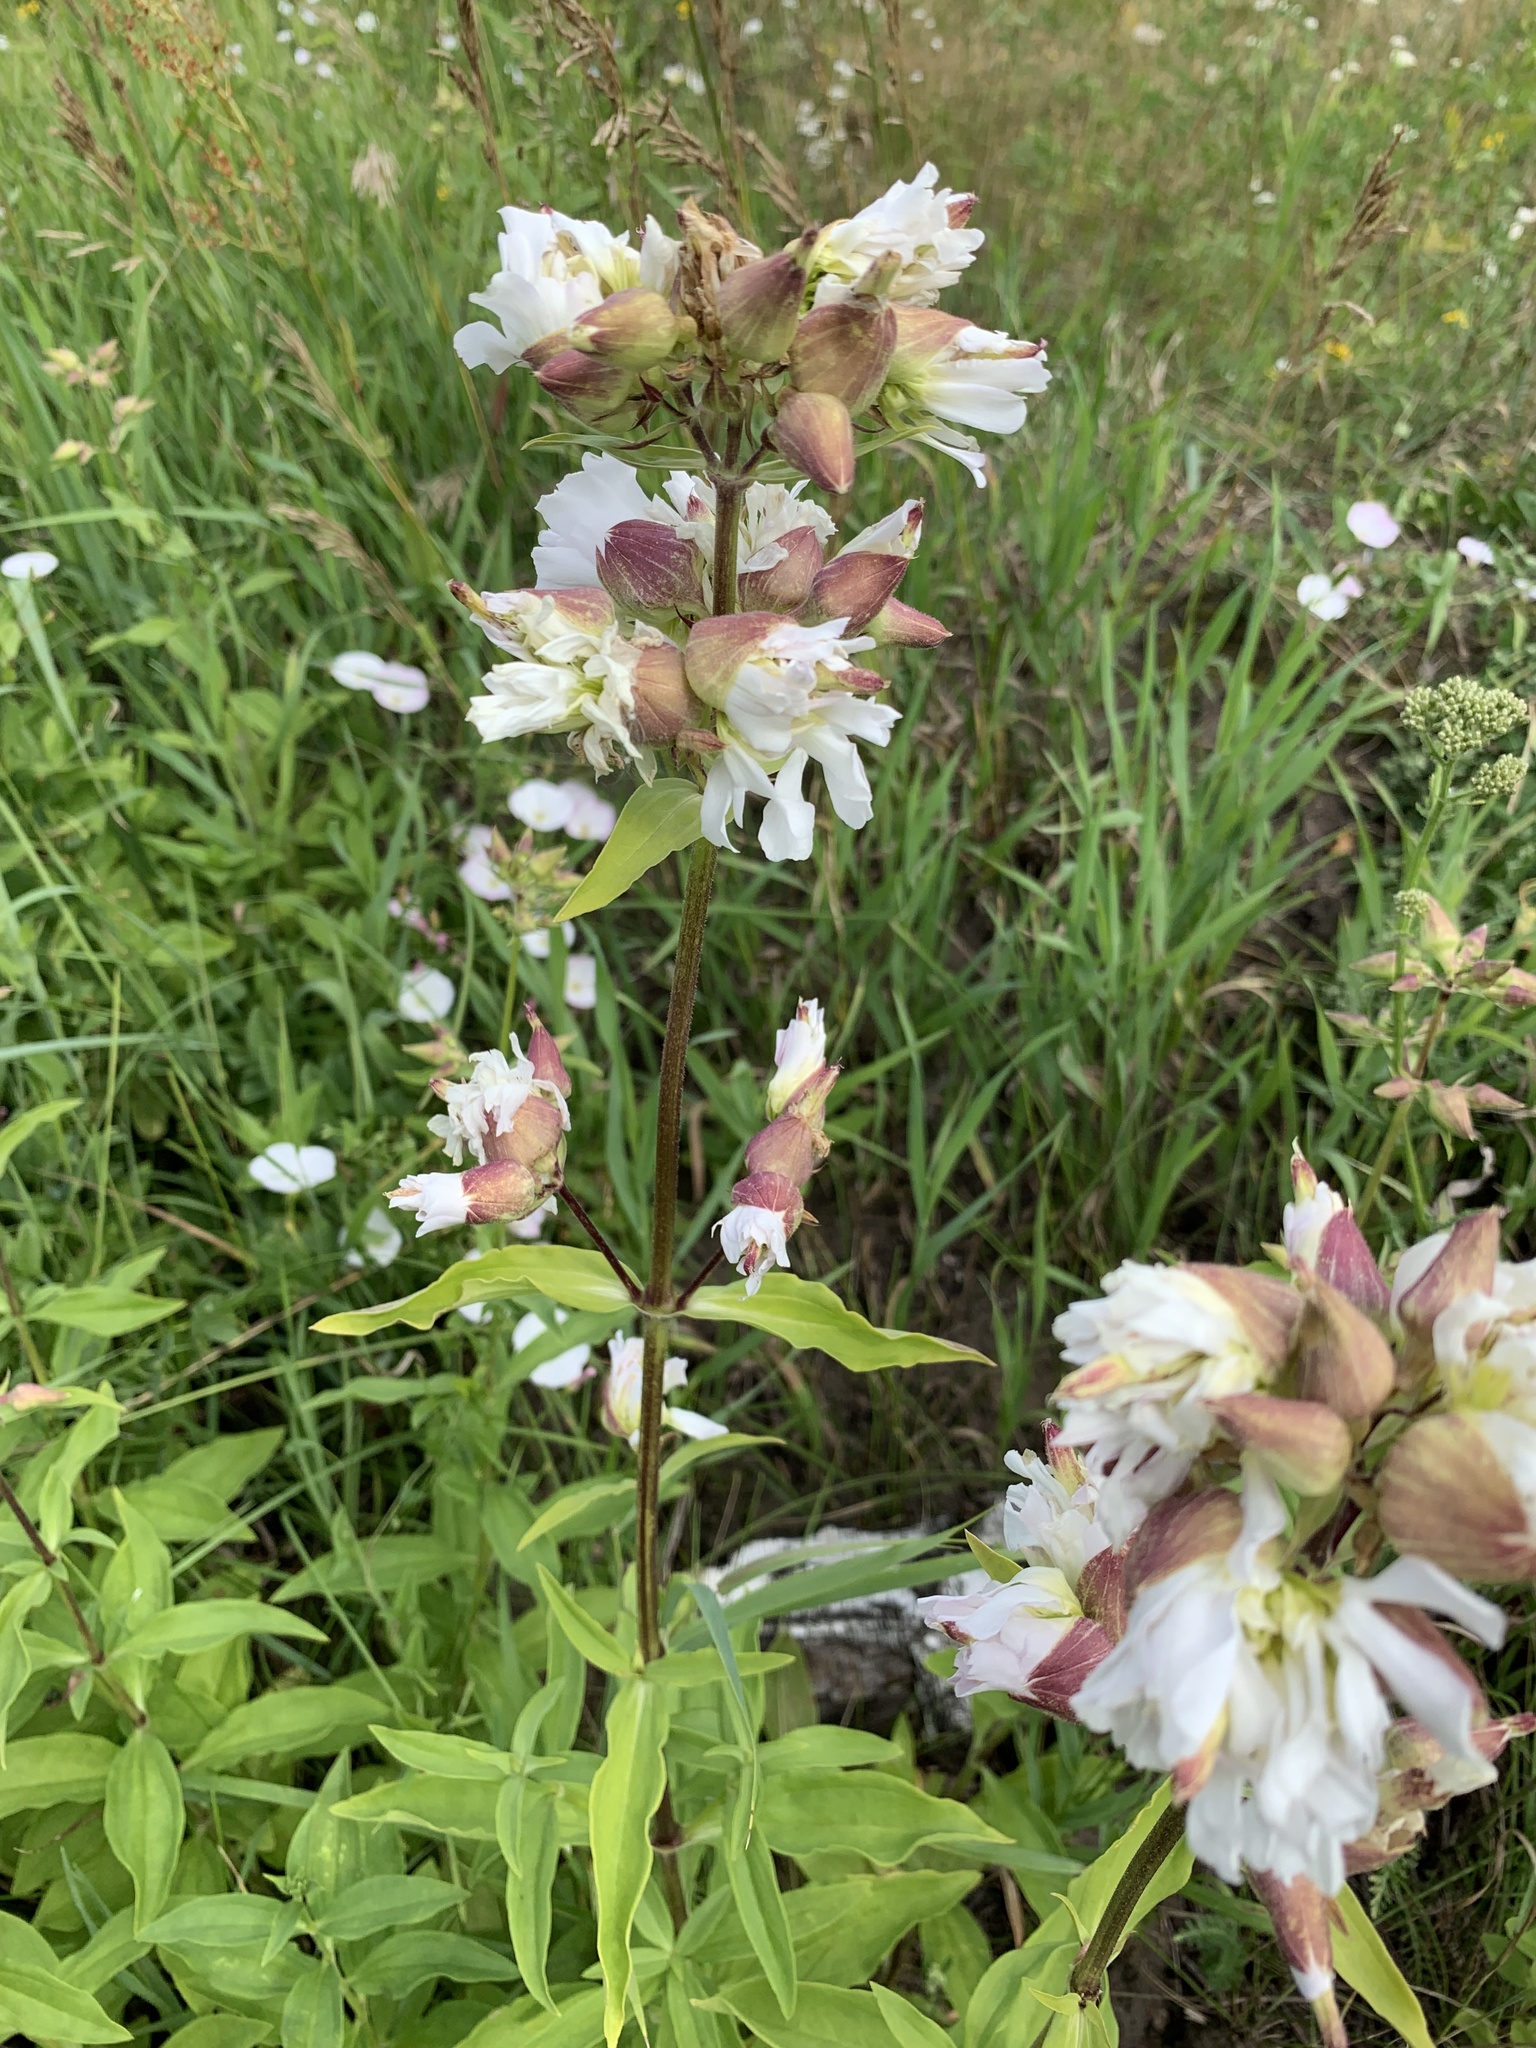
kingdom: Plantae
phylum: Tracheophyta
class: Magnoliopsida
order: Caryophyllales
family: Caryophyllaceae
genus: Saponaria
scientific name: Saponaria officinalis
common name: Soapwort
